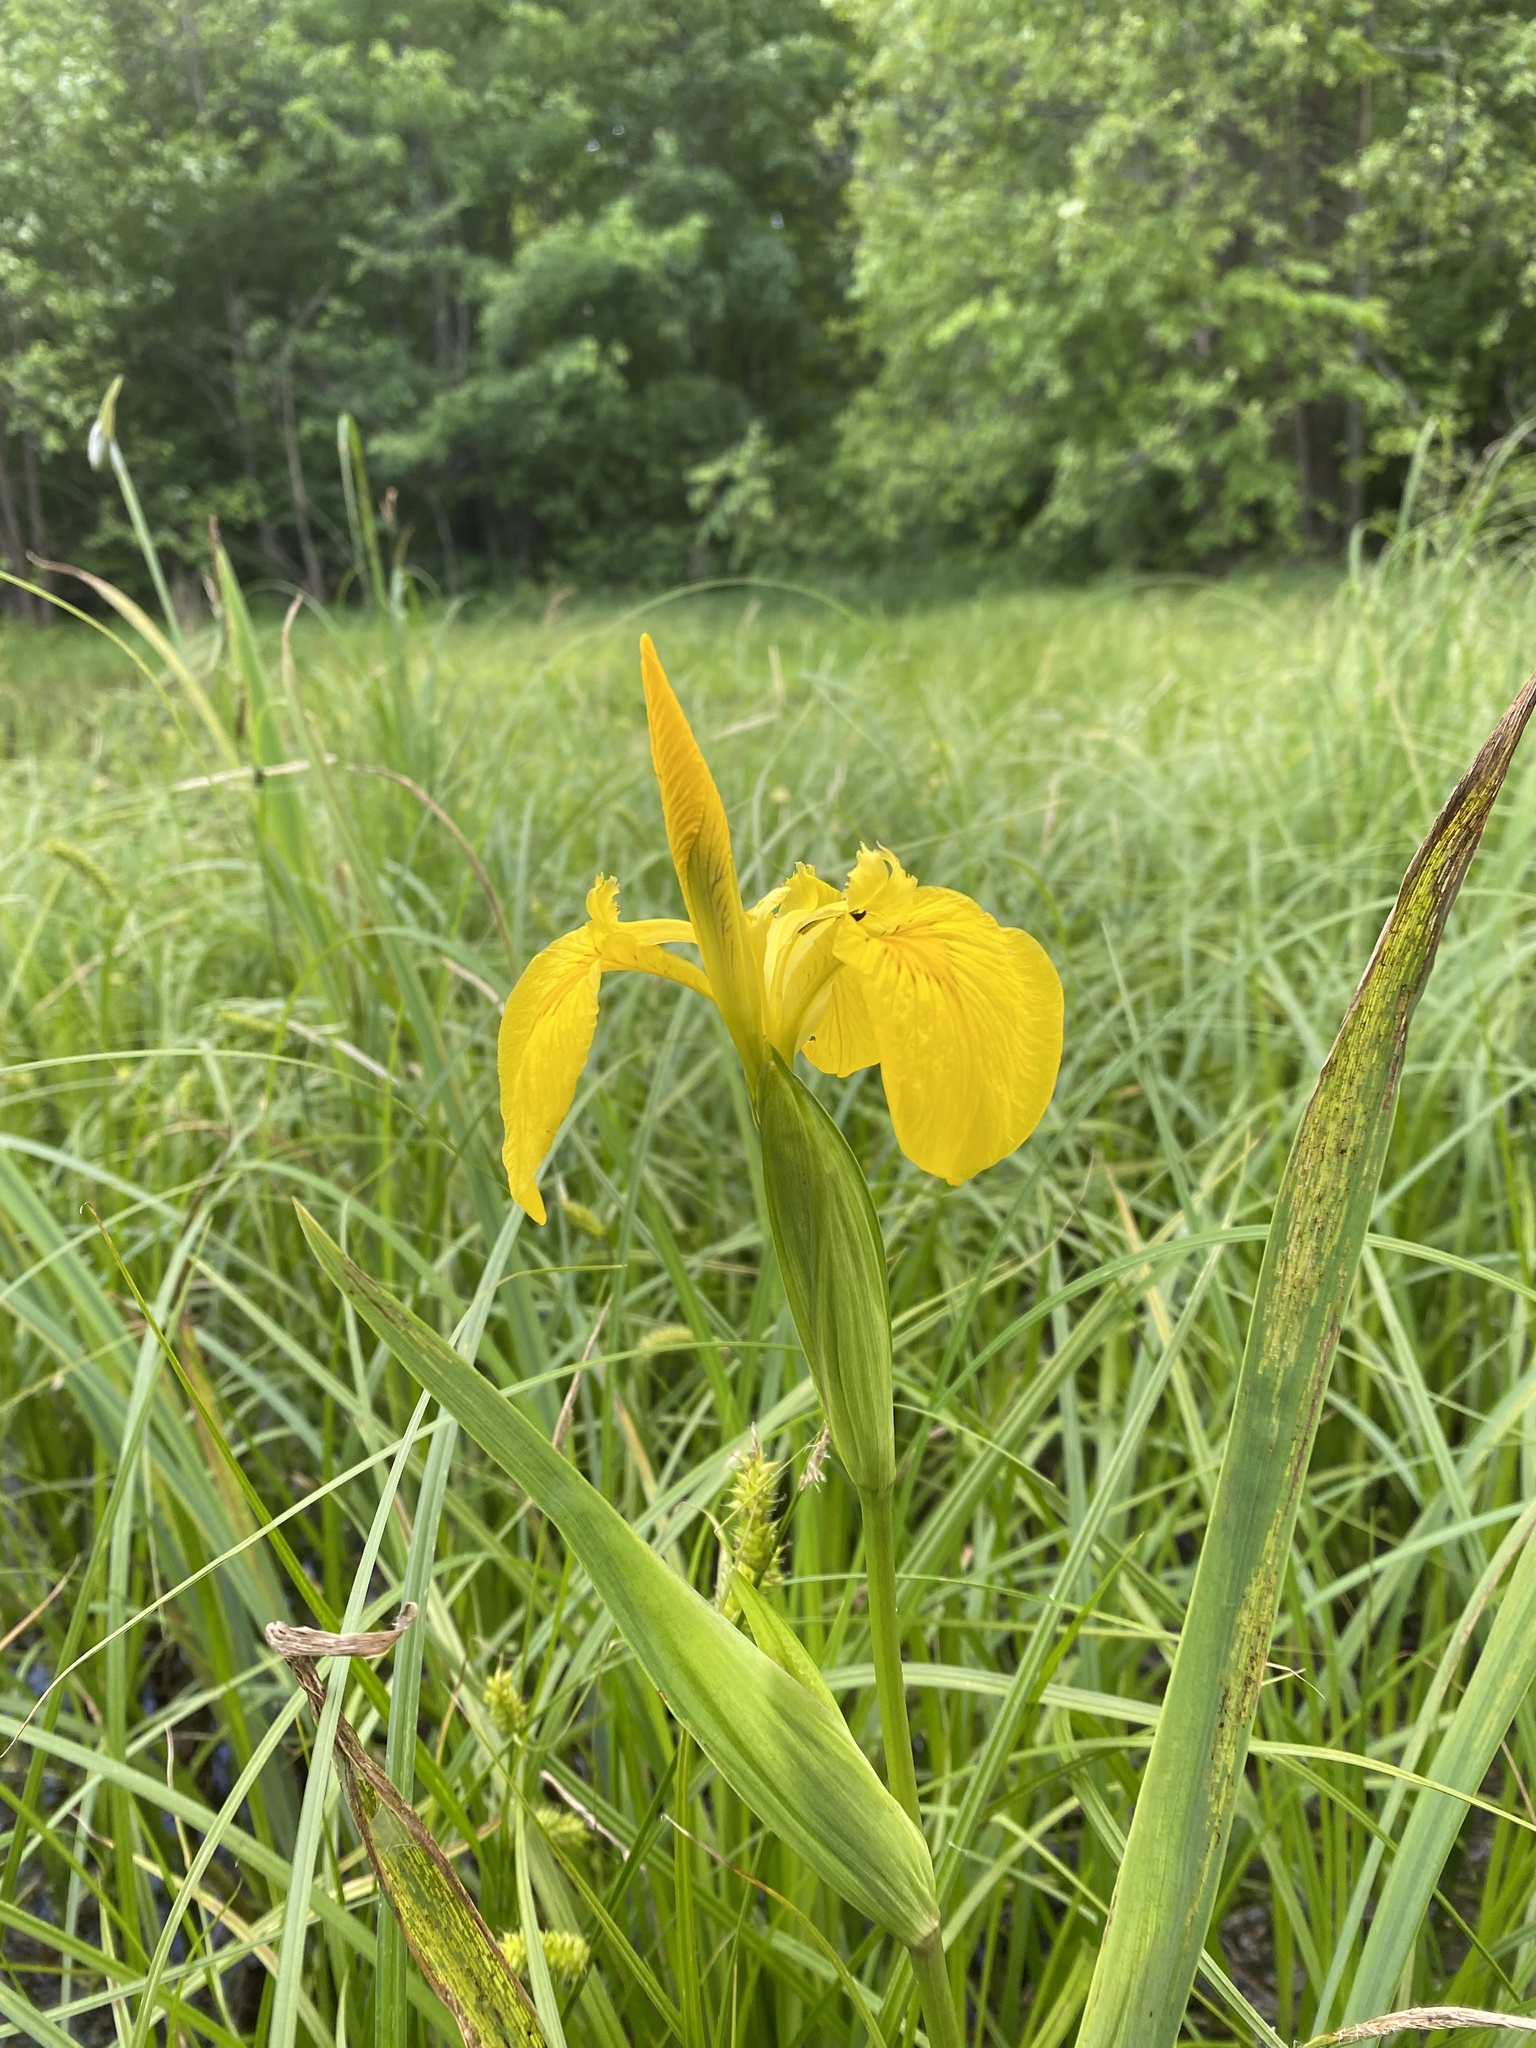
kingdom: Plantae
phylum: Tracheophyta
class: Liliopsida
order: Asparagales
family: Iridaceae
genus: Iris
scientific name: Iris pseudacorus
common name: Yellow flag
